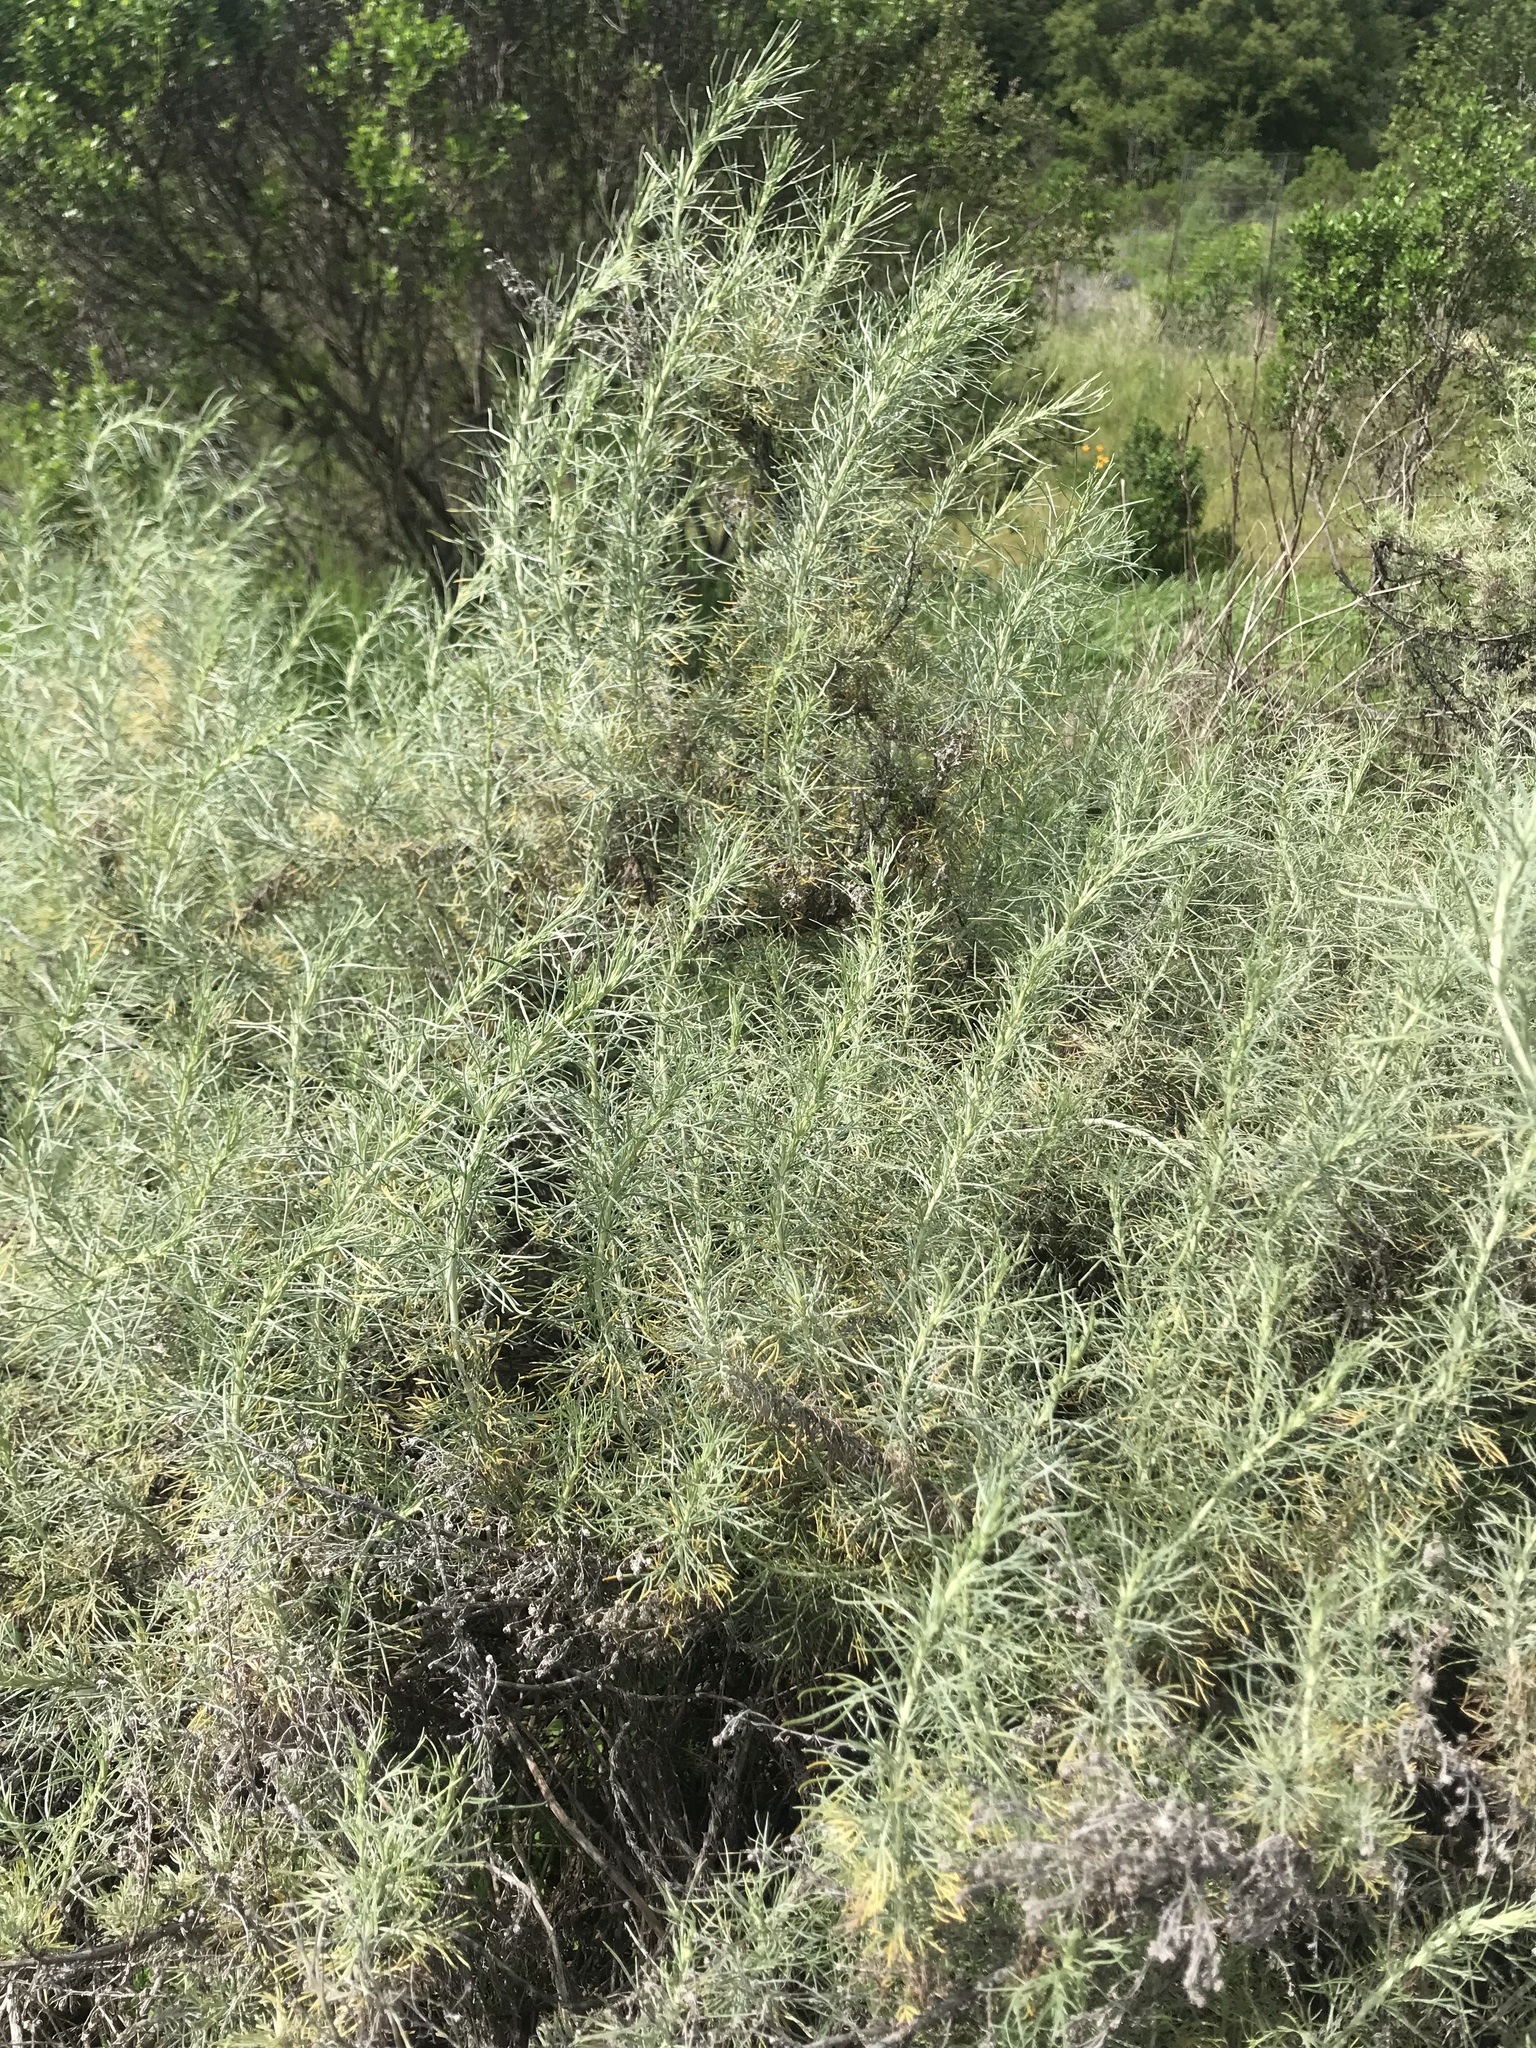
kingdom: Plantae
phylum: Tracheophyta
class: Magnoliopsida
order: Asterales
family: Asteraceae
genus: Artemisia
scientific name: Artemisia californica
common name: California sagebrush
